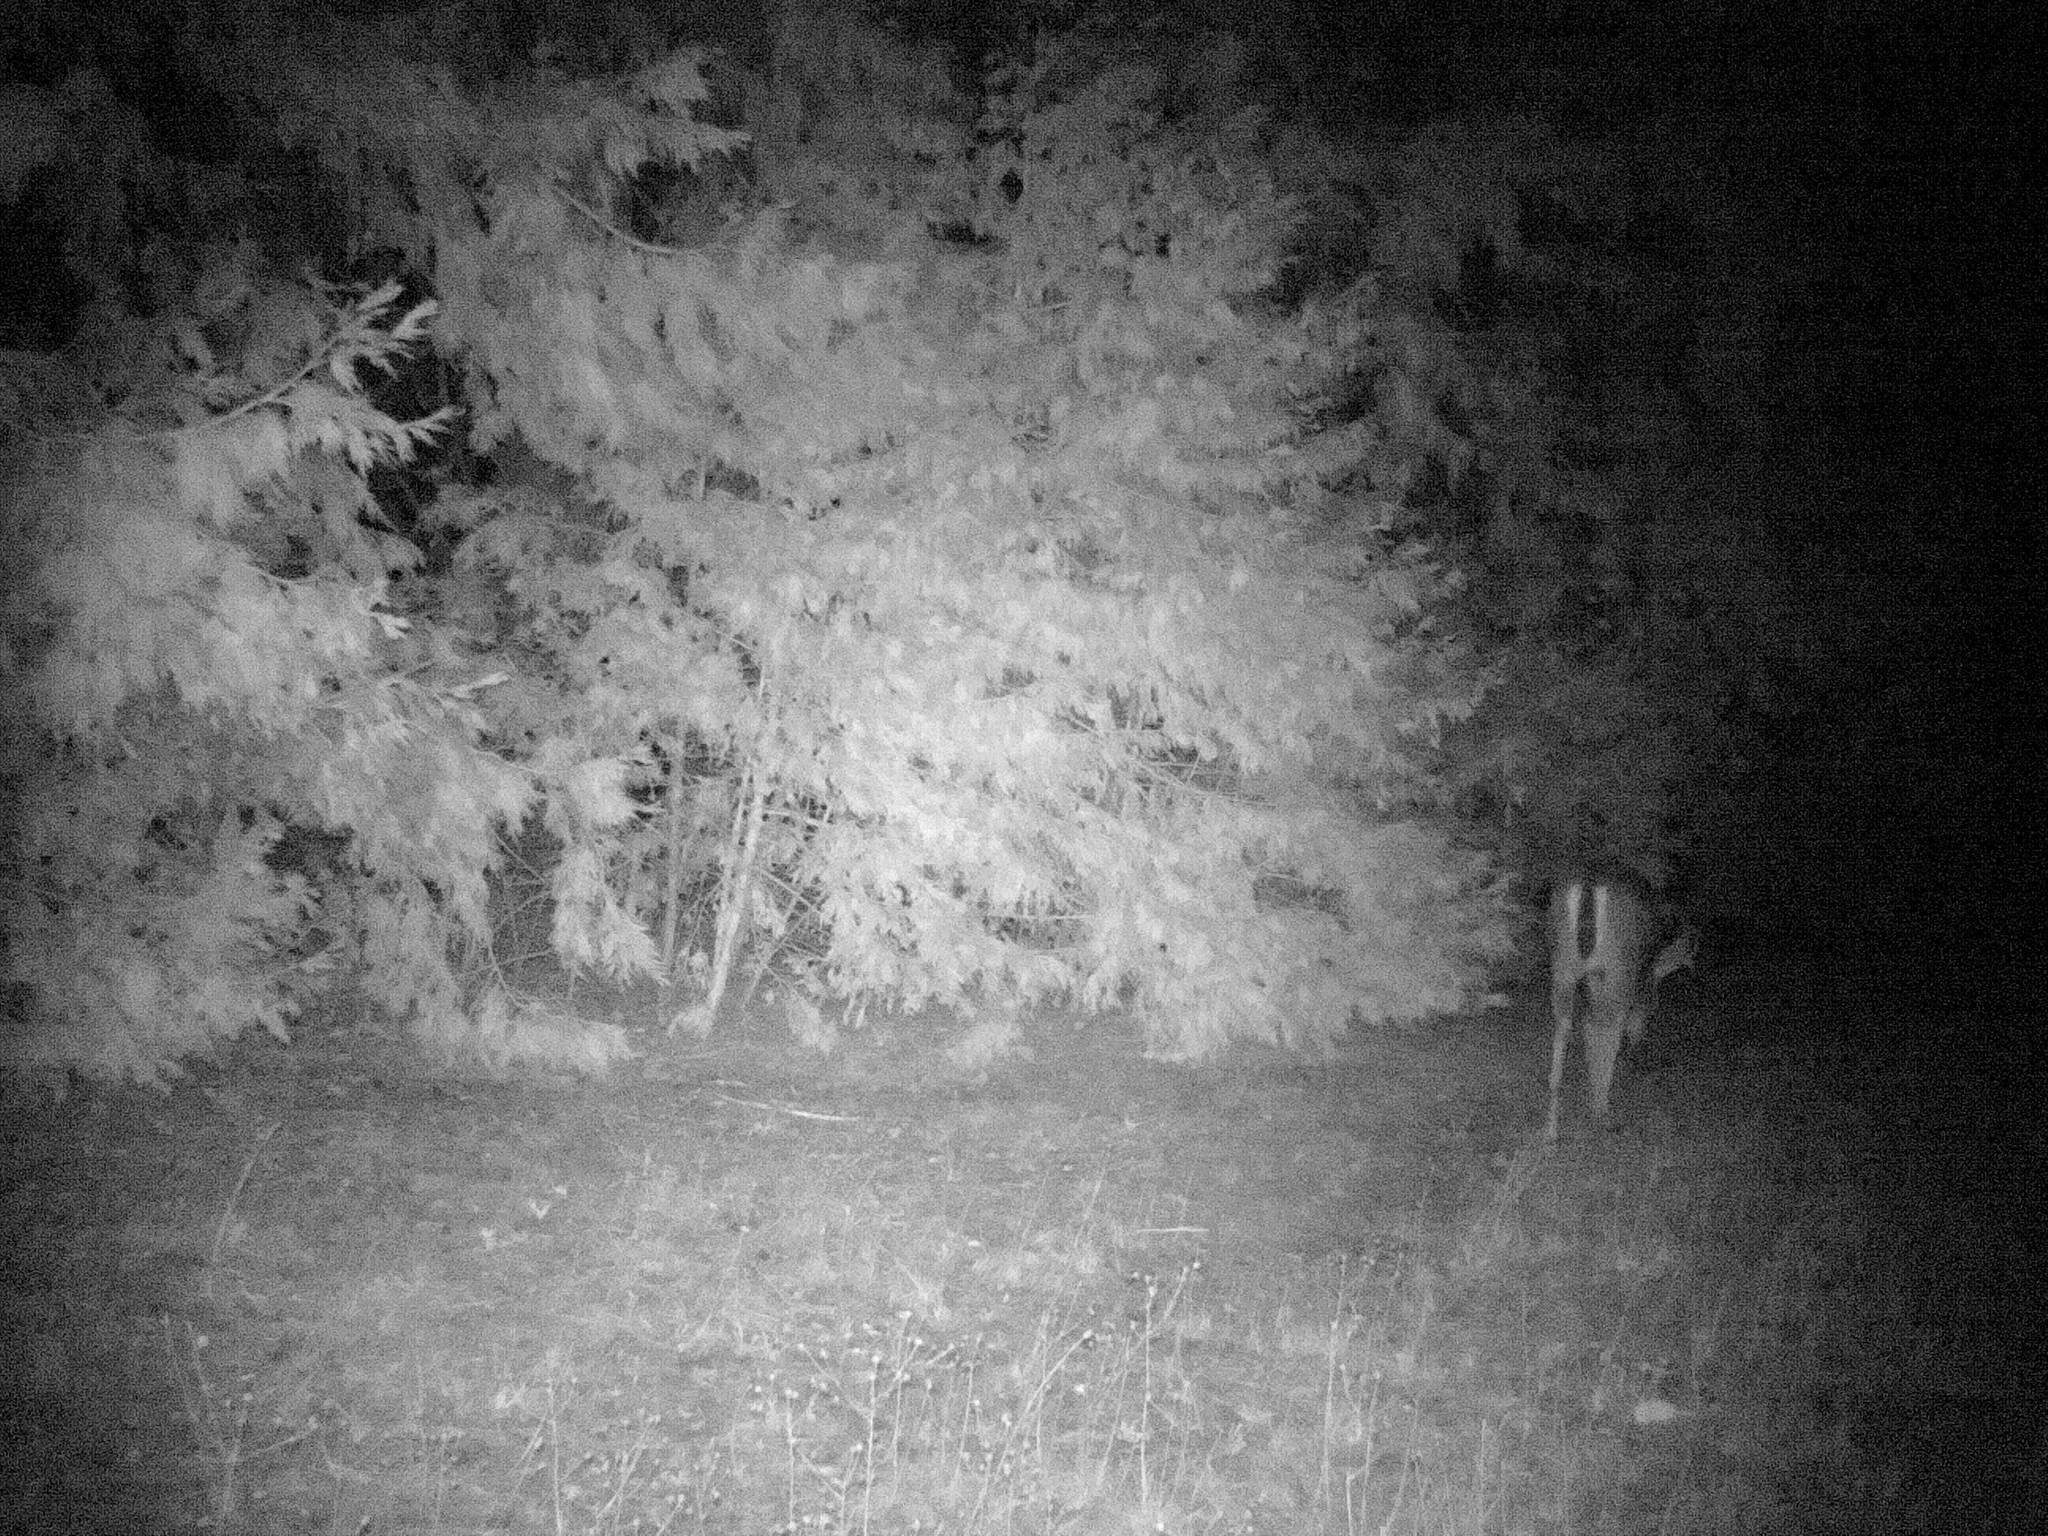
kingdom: Animalia
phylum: Chordata
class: Mammalia
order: Artiodactyla
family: Cervidae
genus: Odocoileus
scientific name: Odocoileus hemionus
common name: Mule deer
